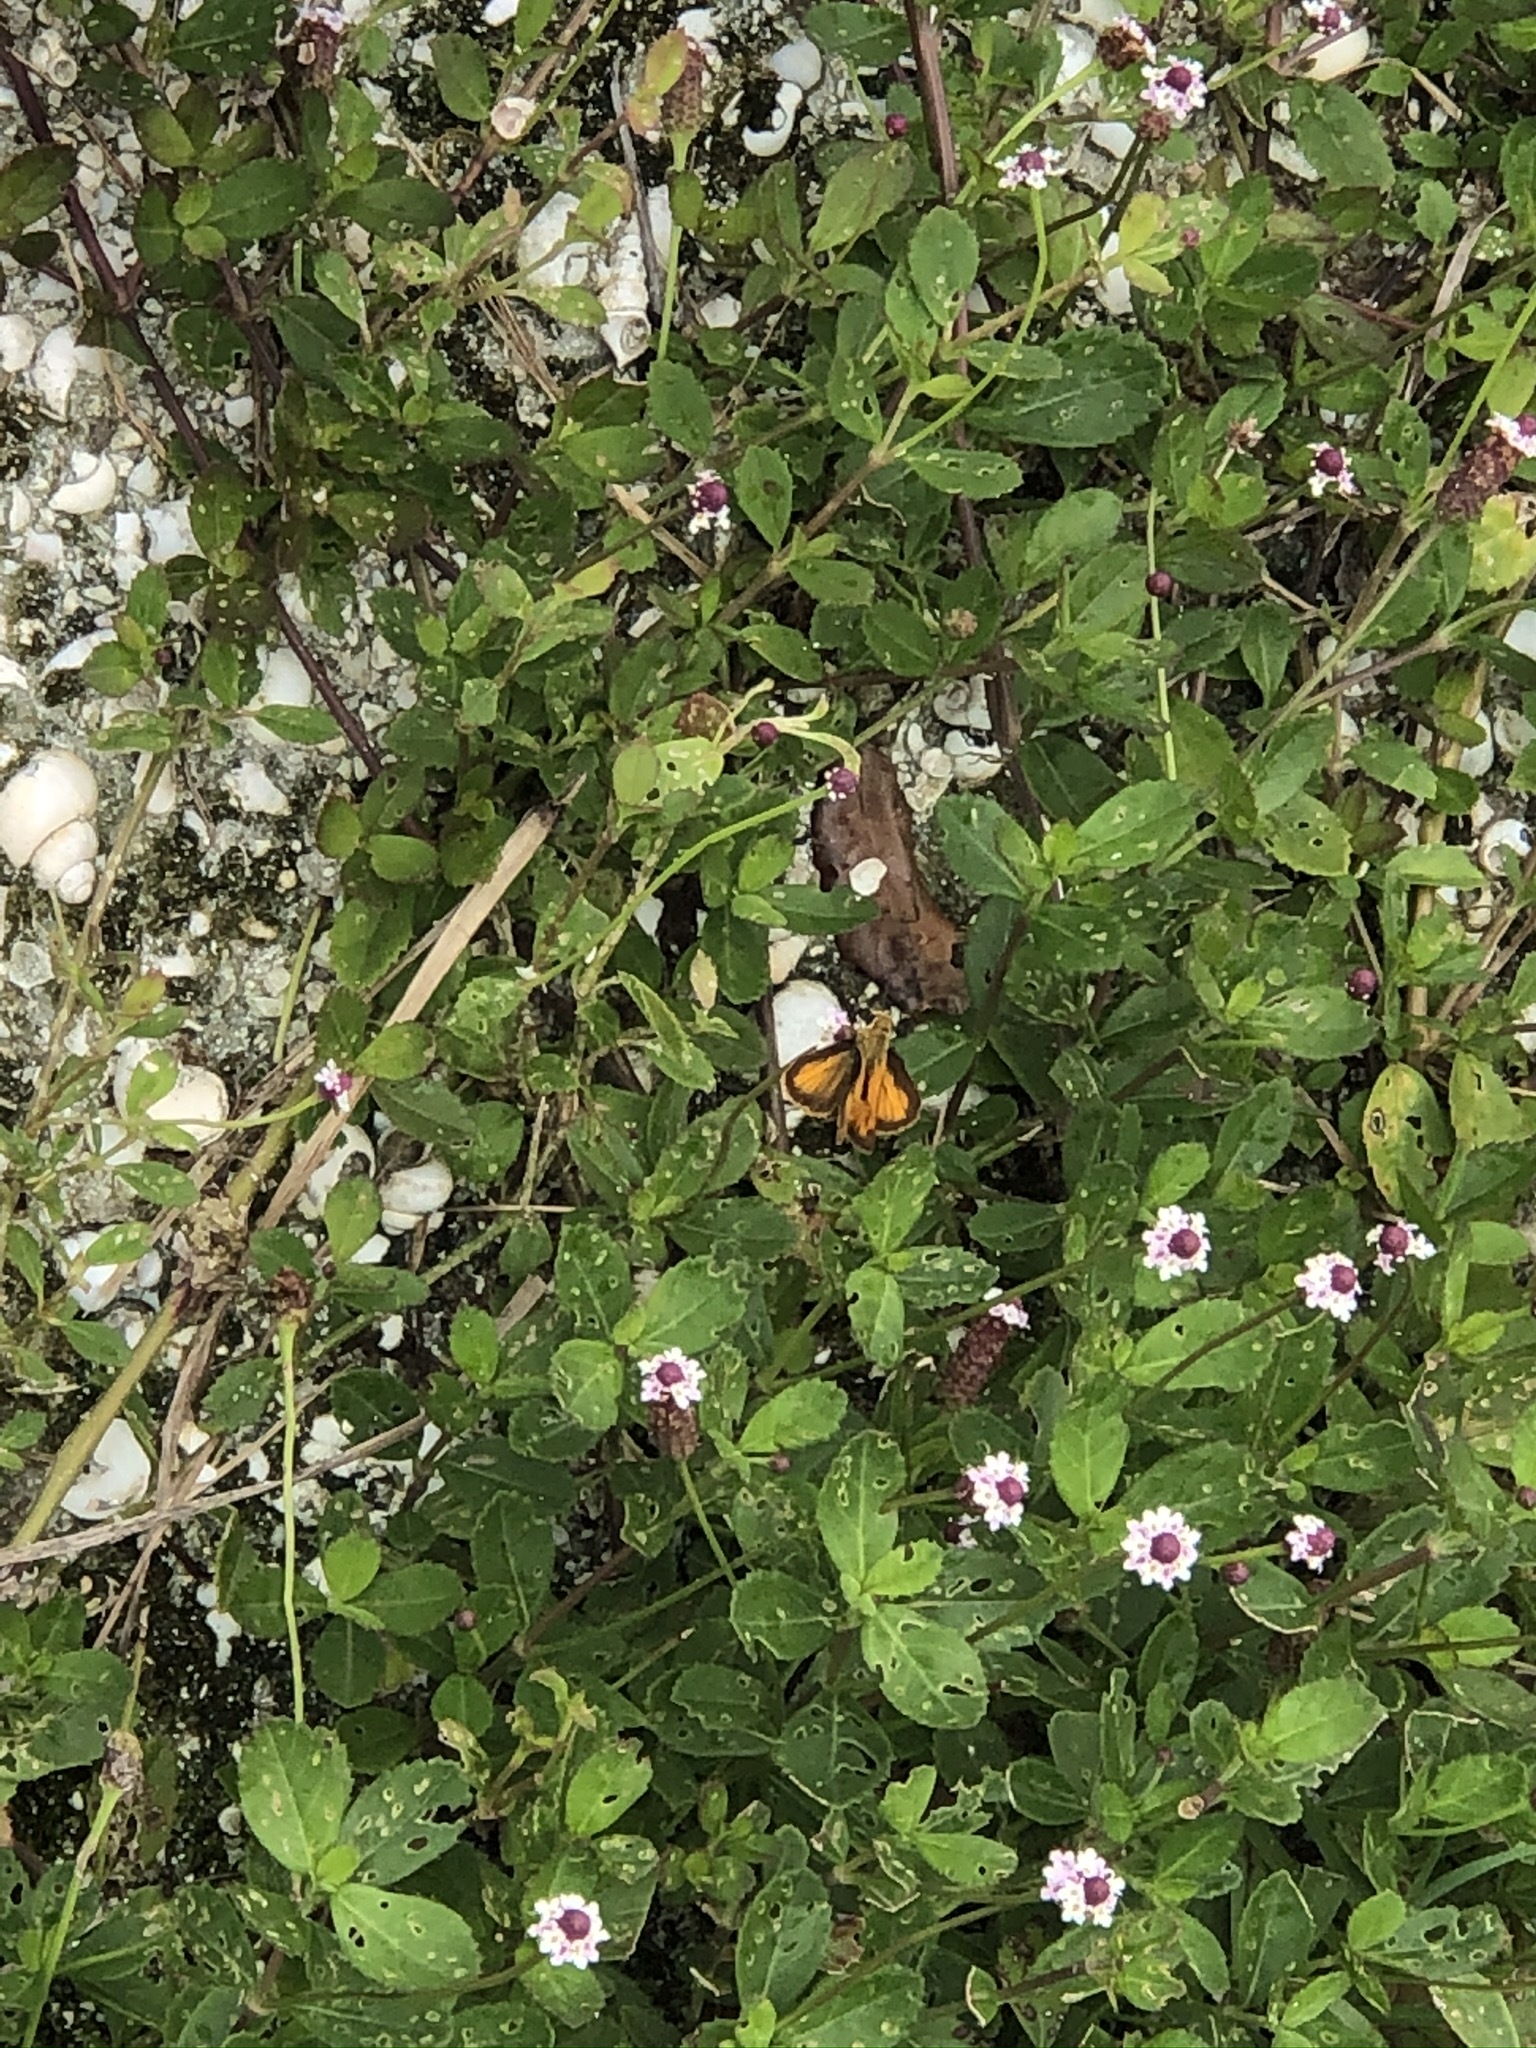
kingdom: Animalia
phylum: Arthropoda
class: Insecta
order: Lepidoptera
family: Hesperiidae
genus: Polites
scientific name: Polites vibex
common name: Whirlabout
